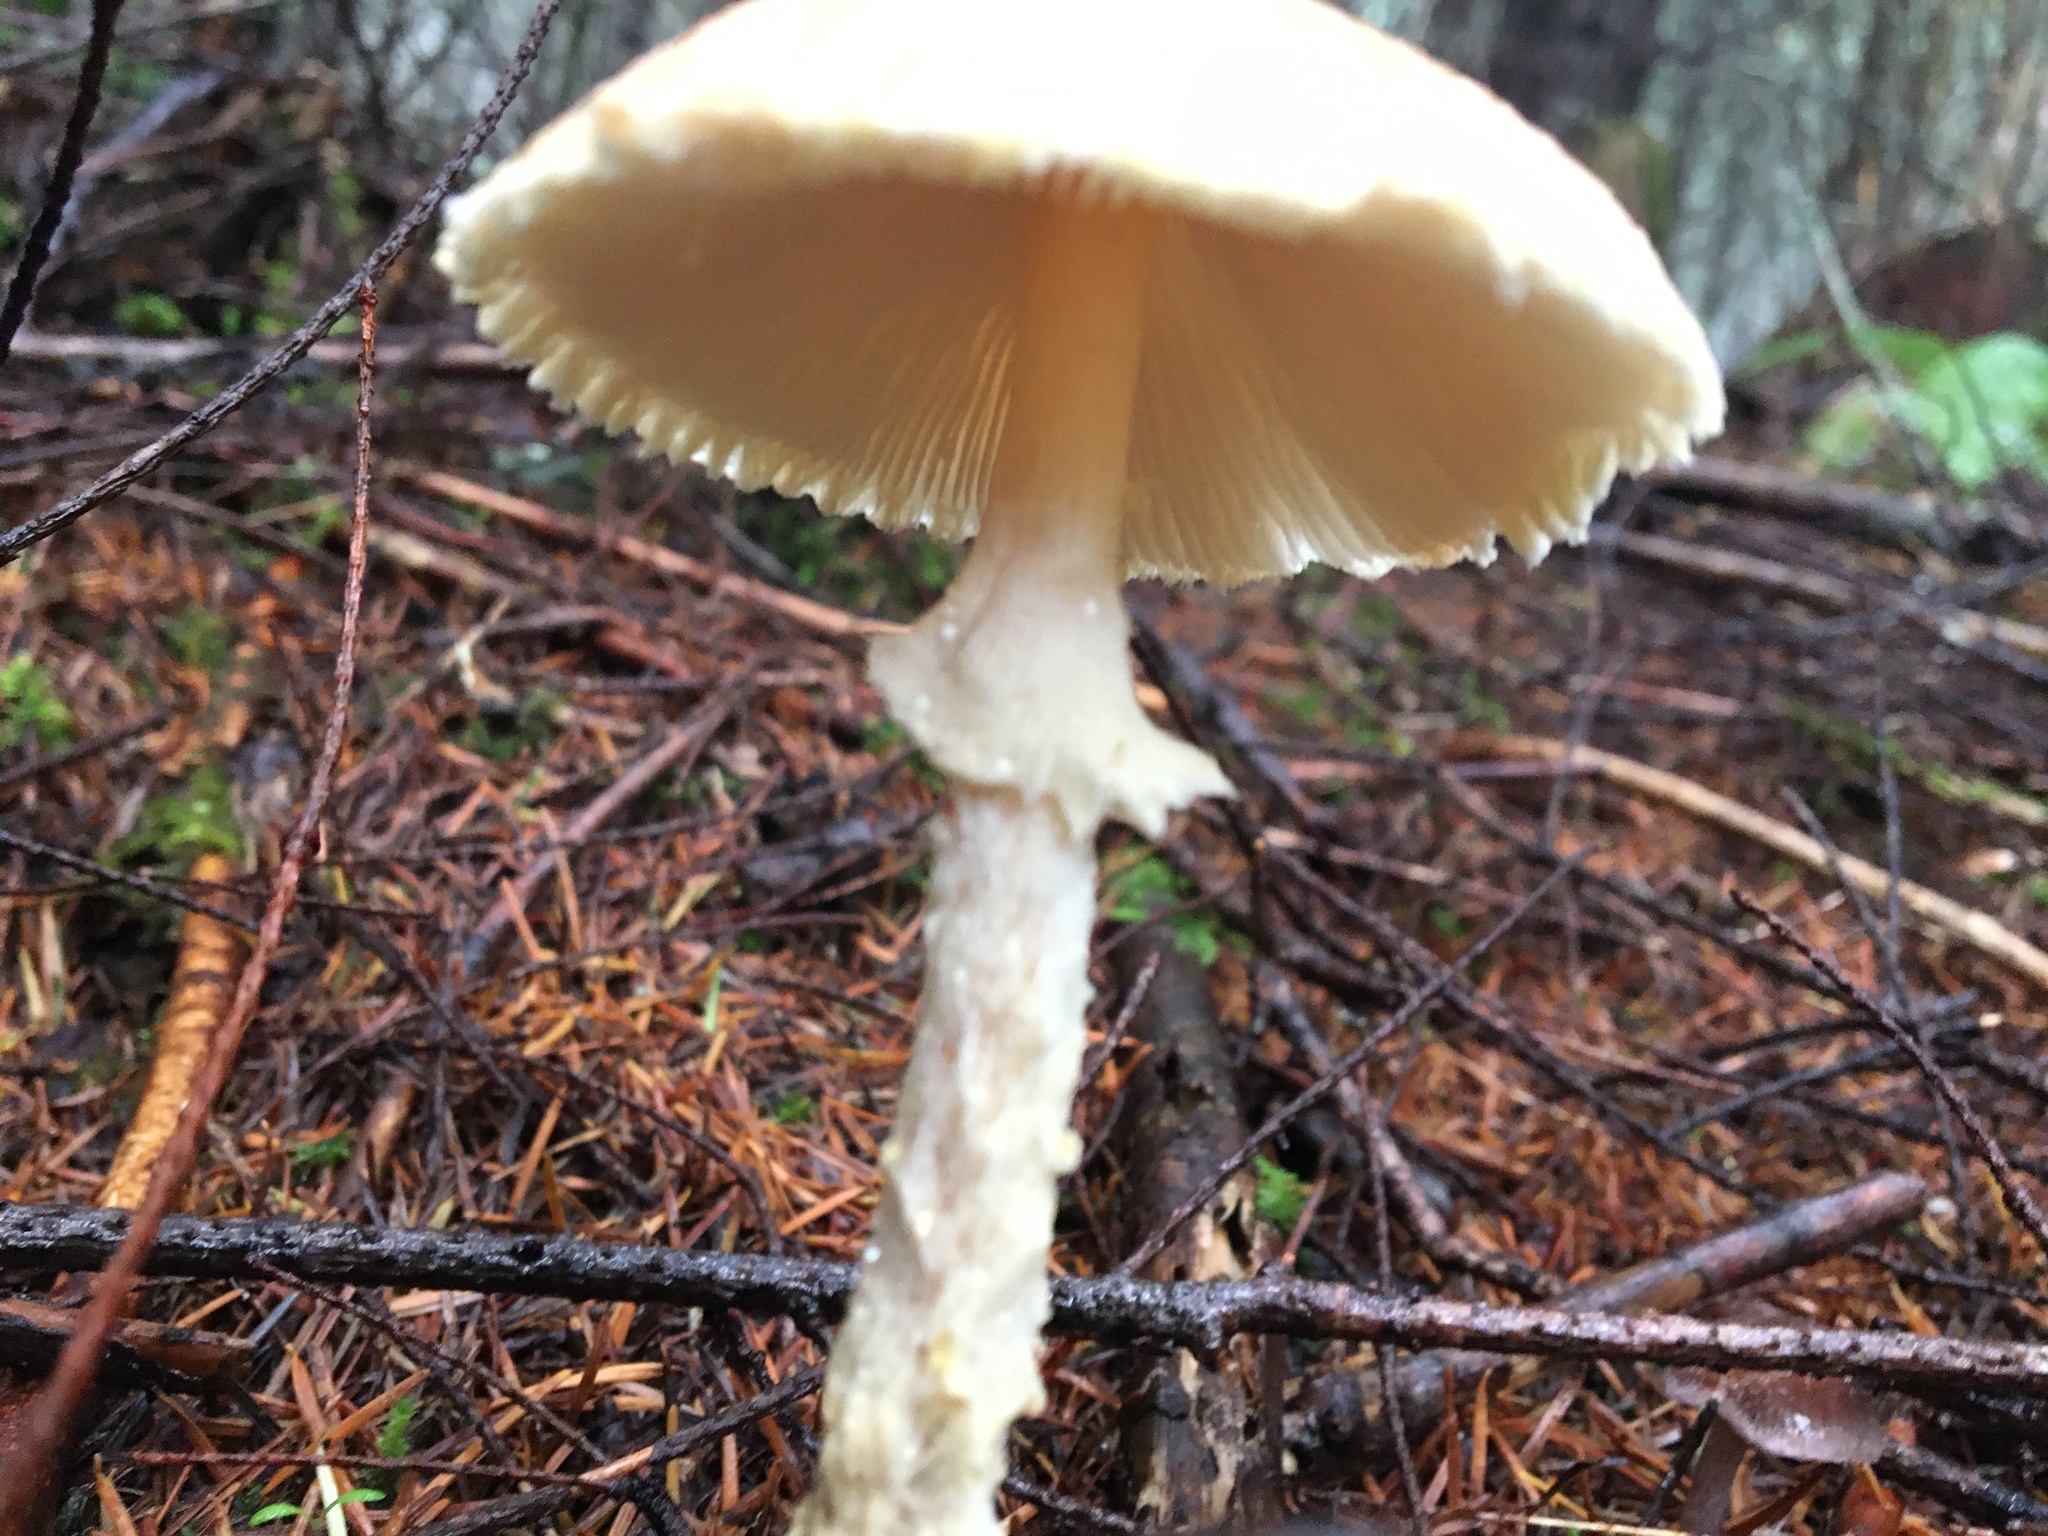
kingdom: Fungi
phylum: Basidiomycota
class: Agaricomycetes
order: Agaricales
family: Agaricaceae
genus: Lepiota
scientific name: Lepiota magnispora
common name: Yellowfoot dapperling
